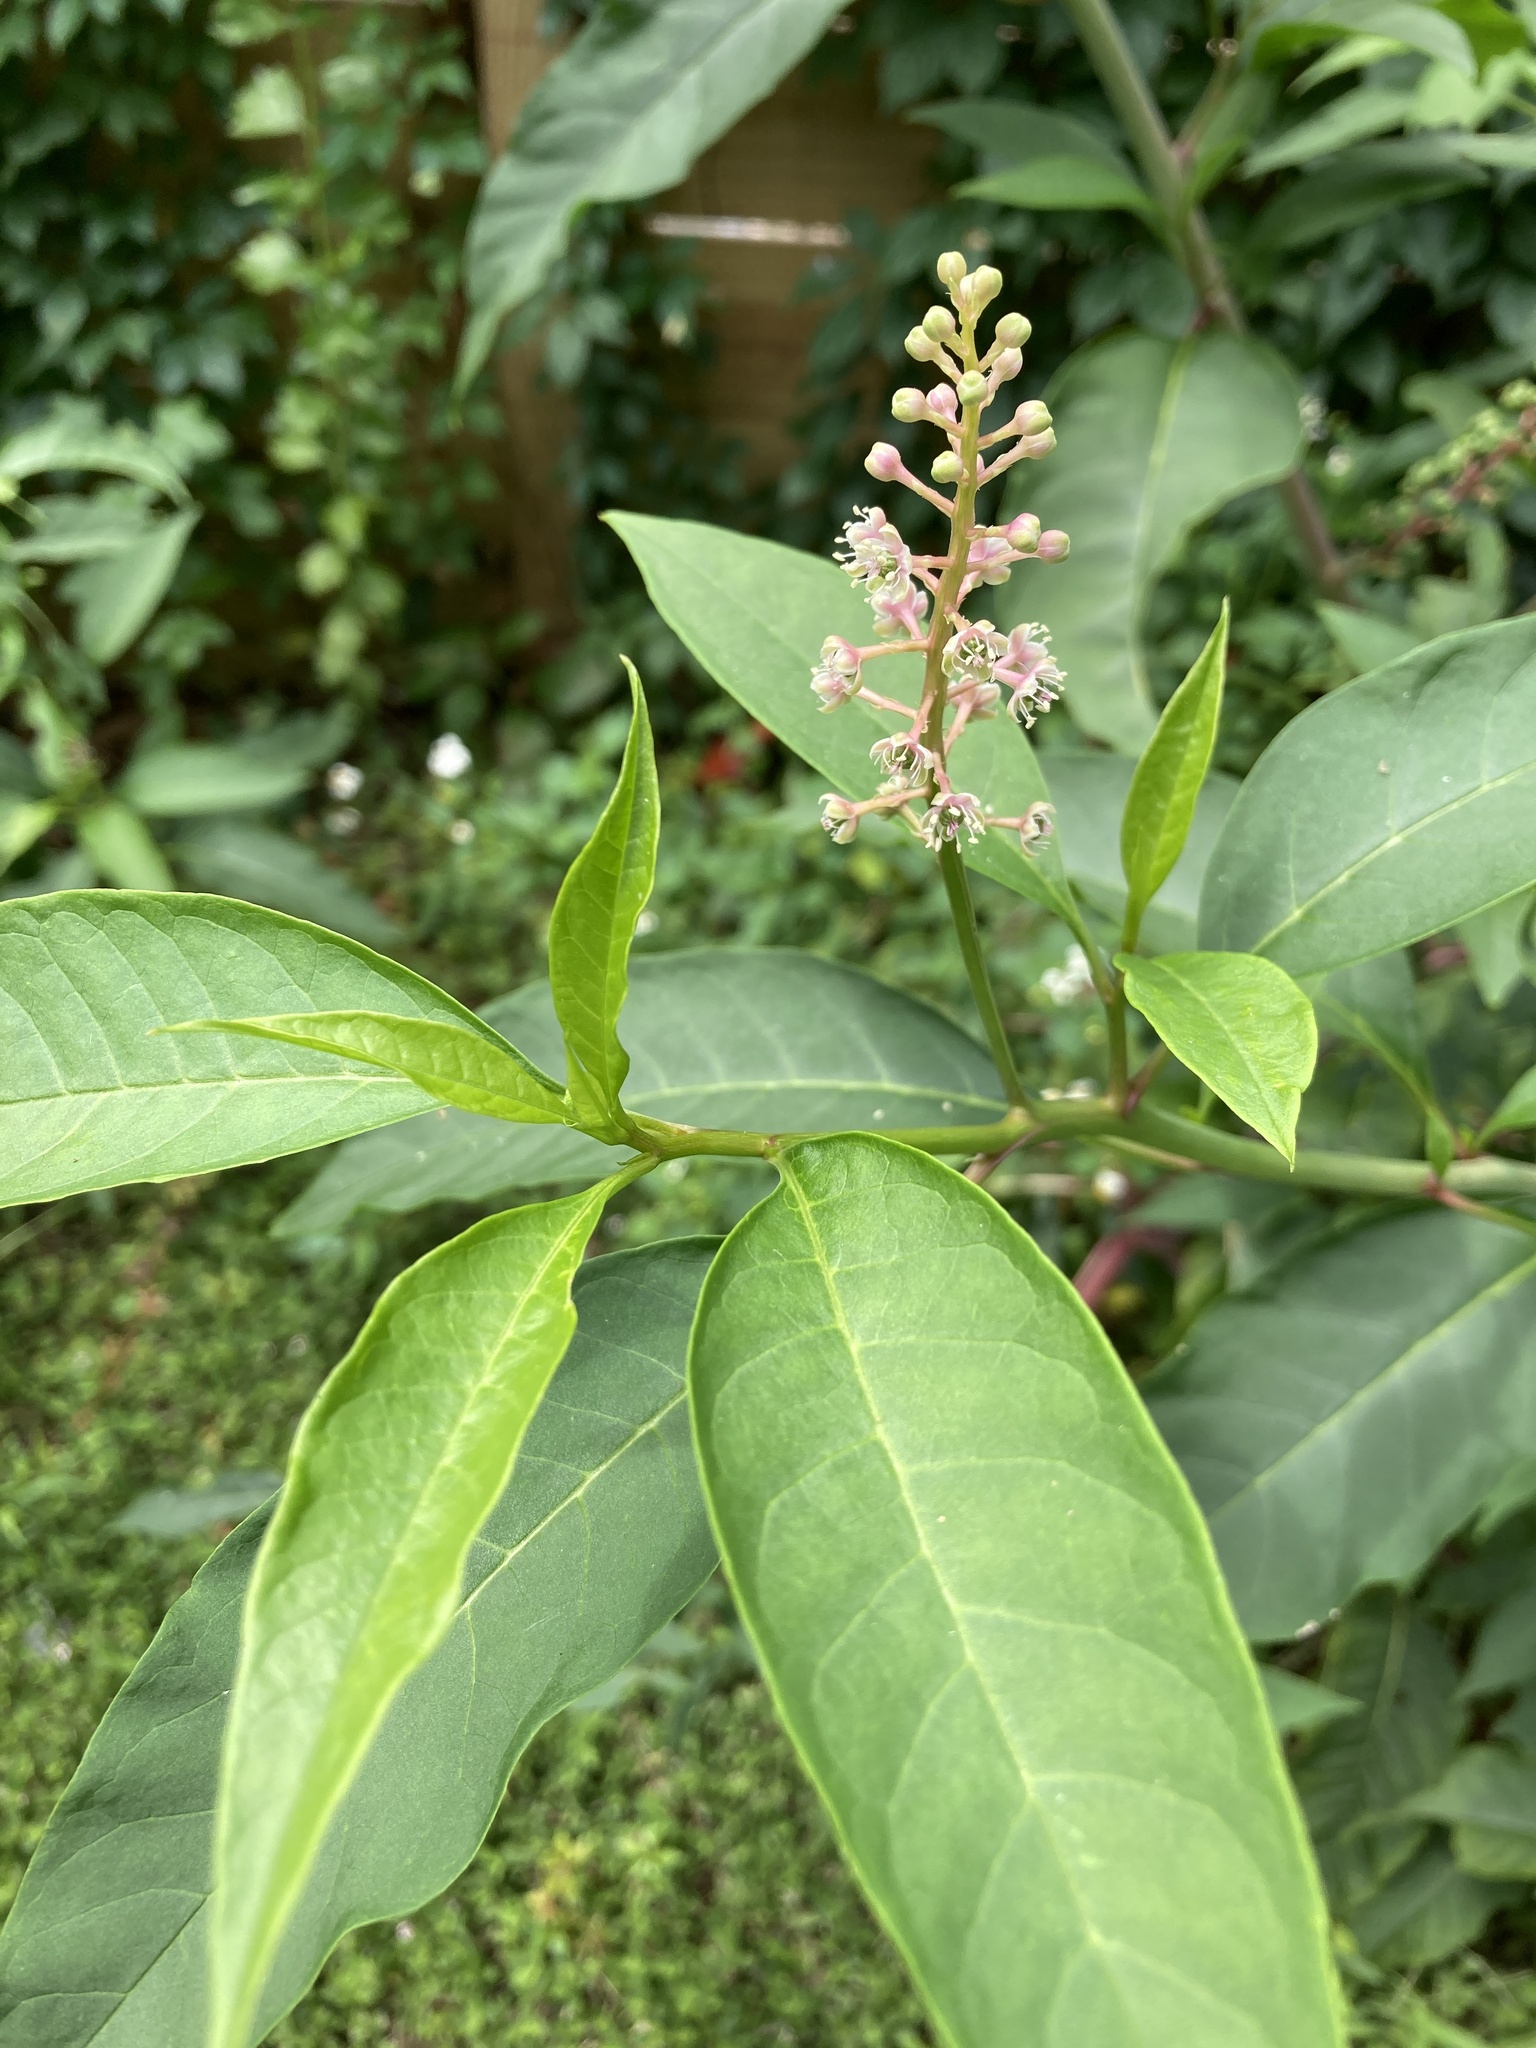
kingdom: Plantae
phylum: Tracheophyta
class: Magnoliopsida
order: Caryophyllales
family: Phytolaccaceae
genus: Phytolacca
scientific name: Phytolacca americana
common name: American pokeweed
